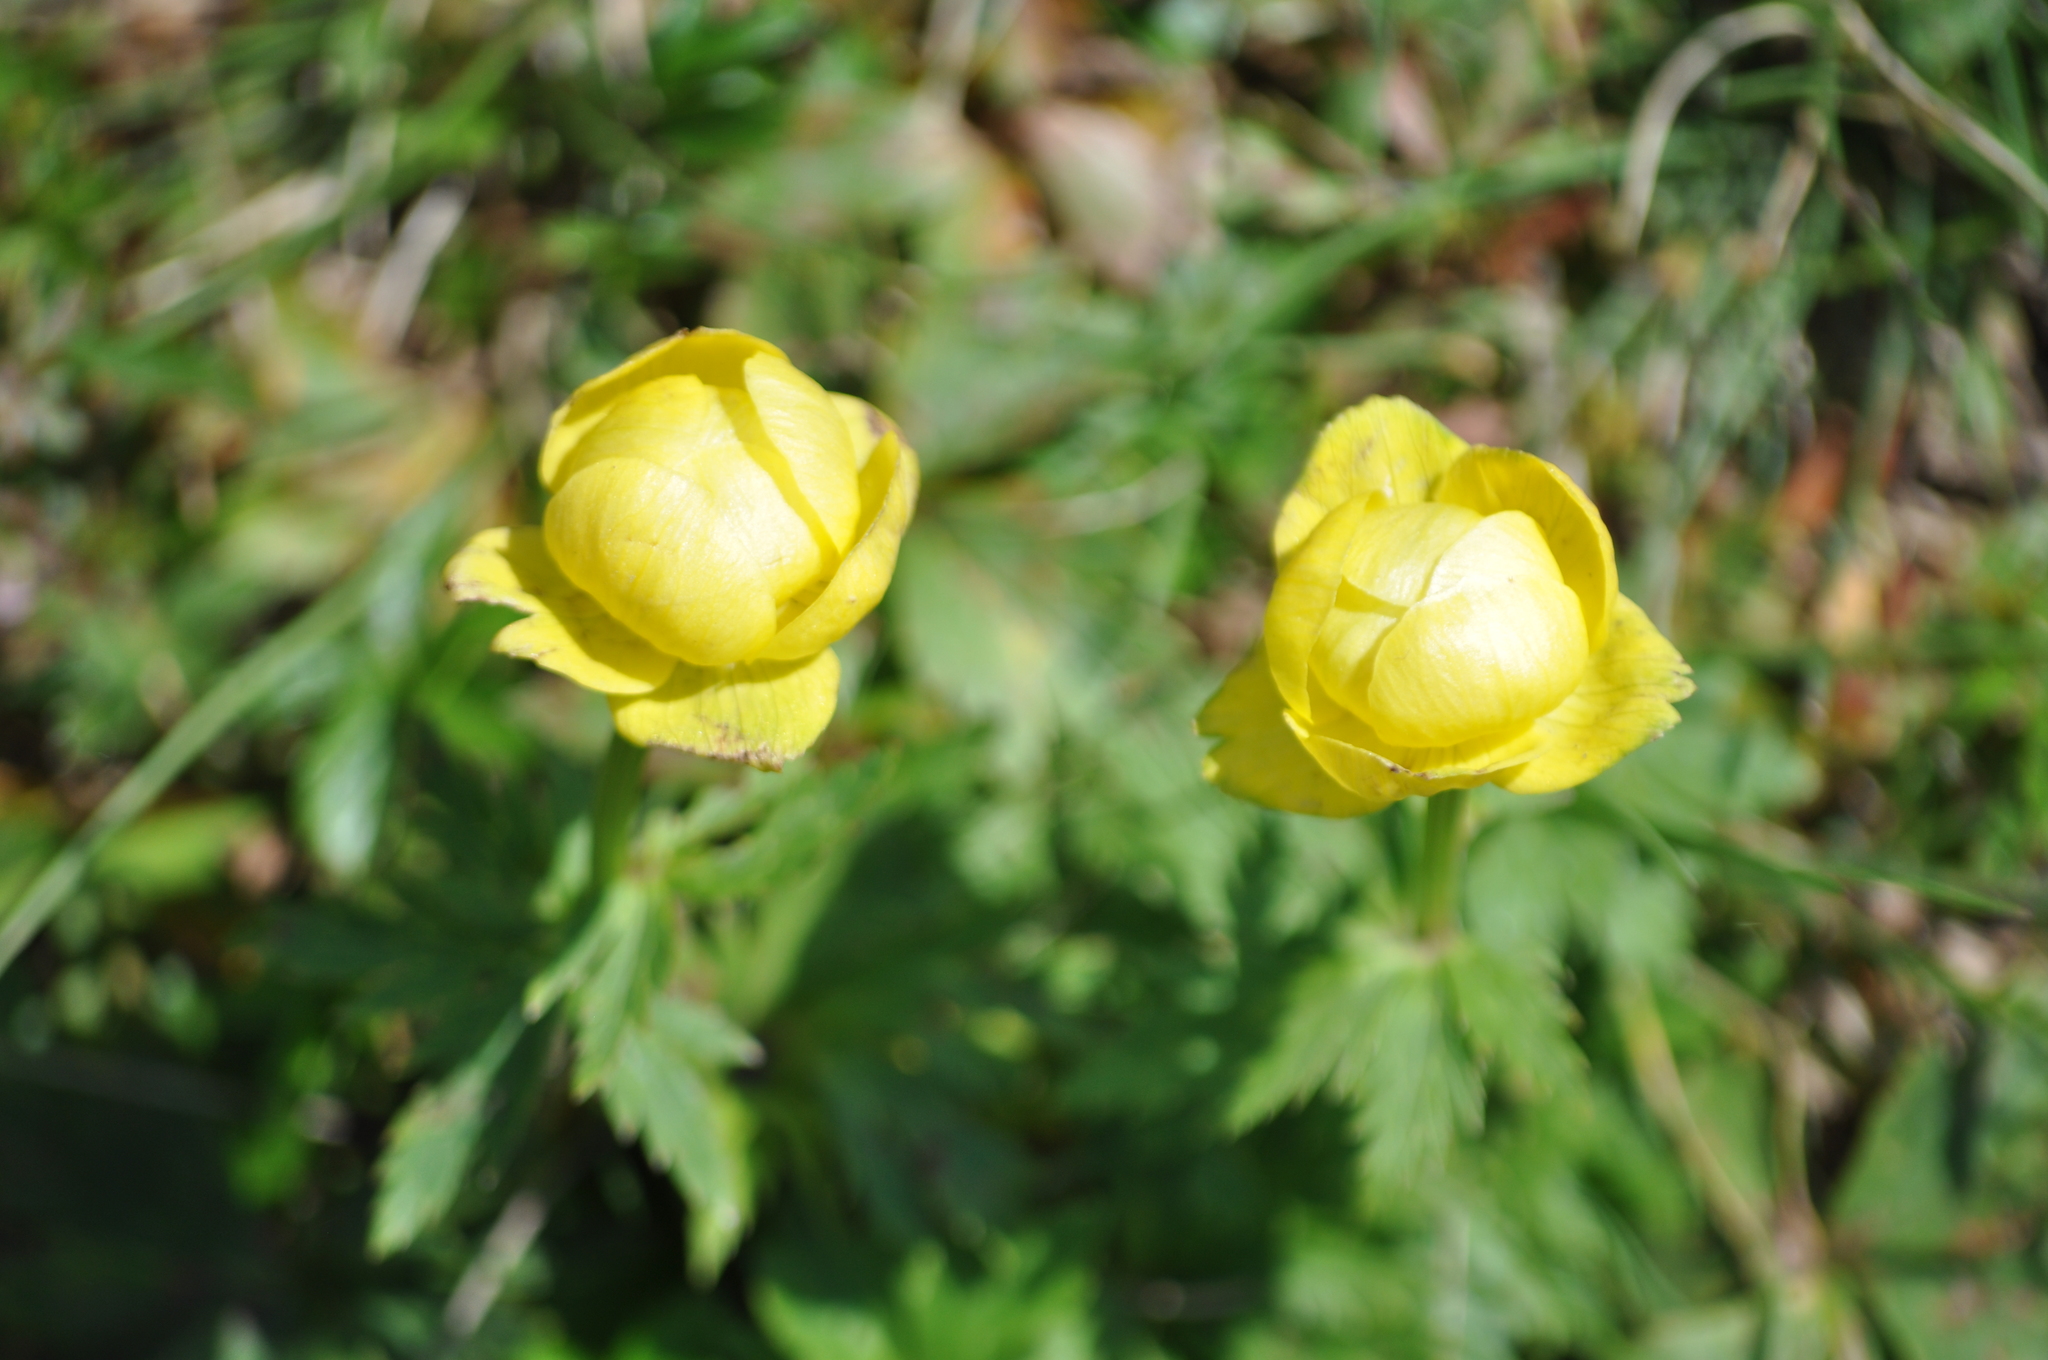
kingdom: Plantae
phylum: Tracheophyta
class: Magnoliopsida
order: Ranunculales
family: Ranunculaceae
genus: Trollius
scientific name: Trollius europaeus
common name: European globeflower
